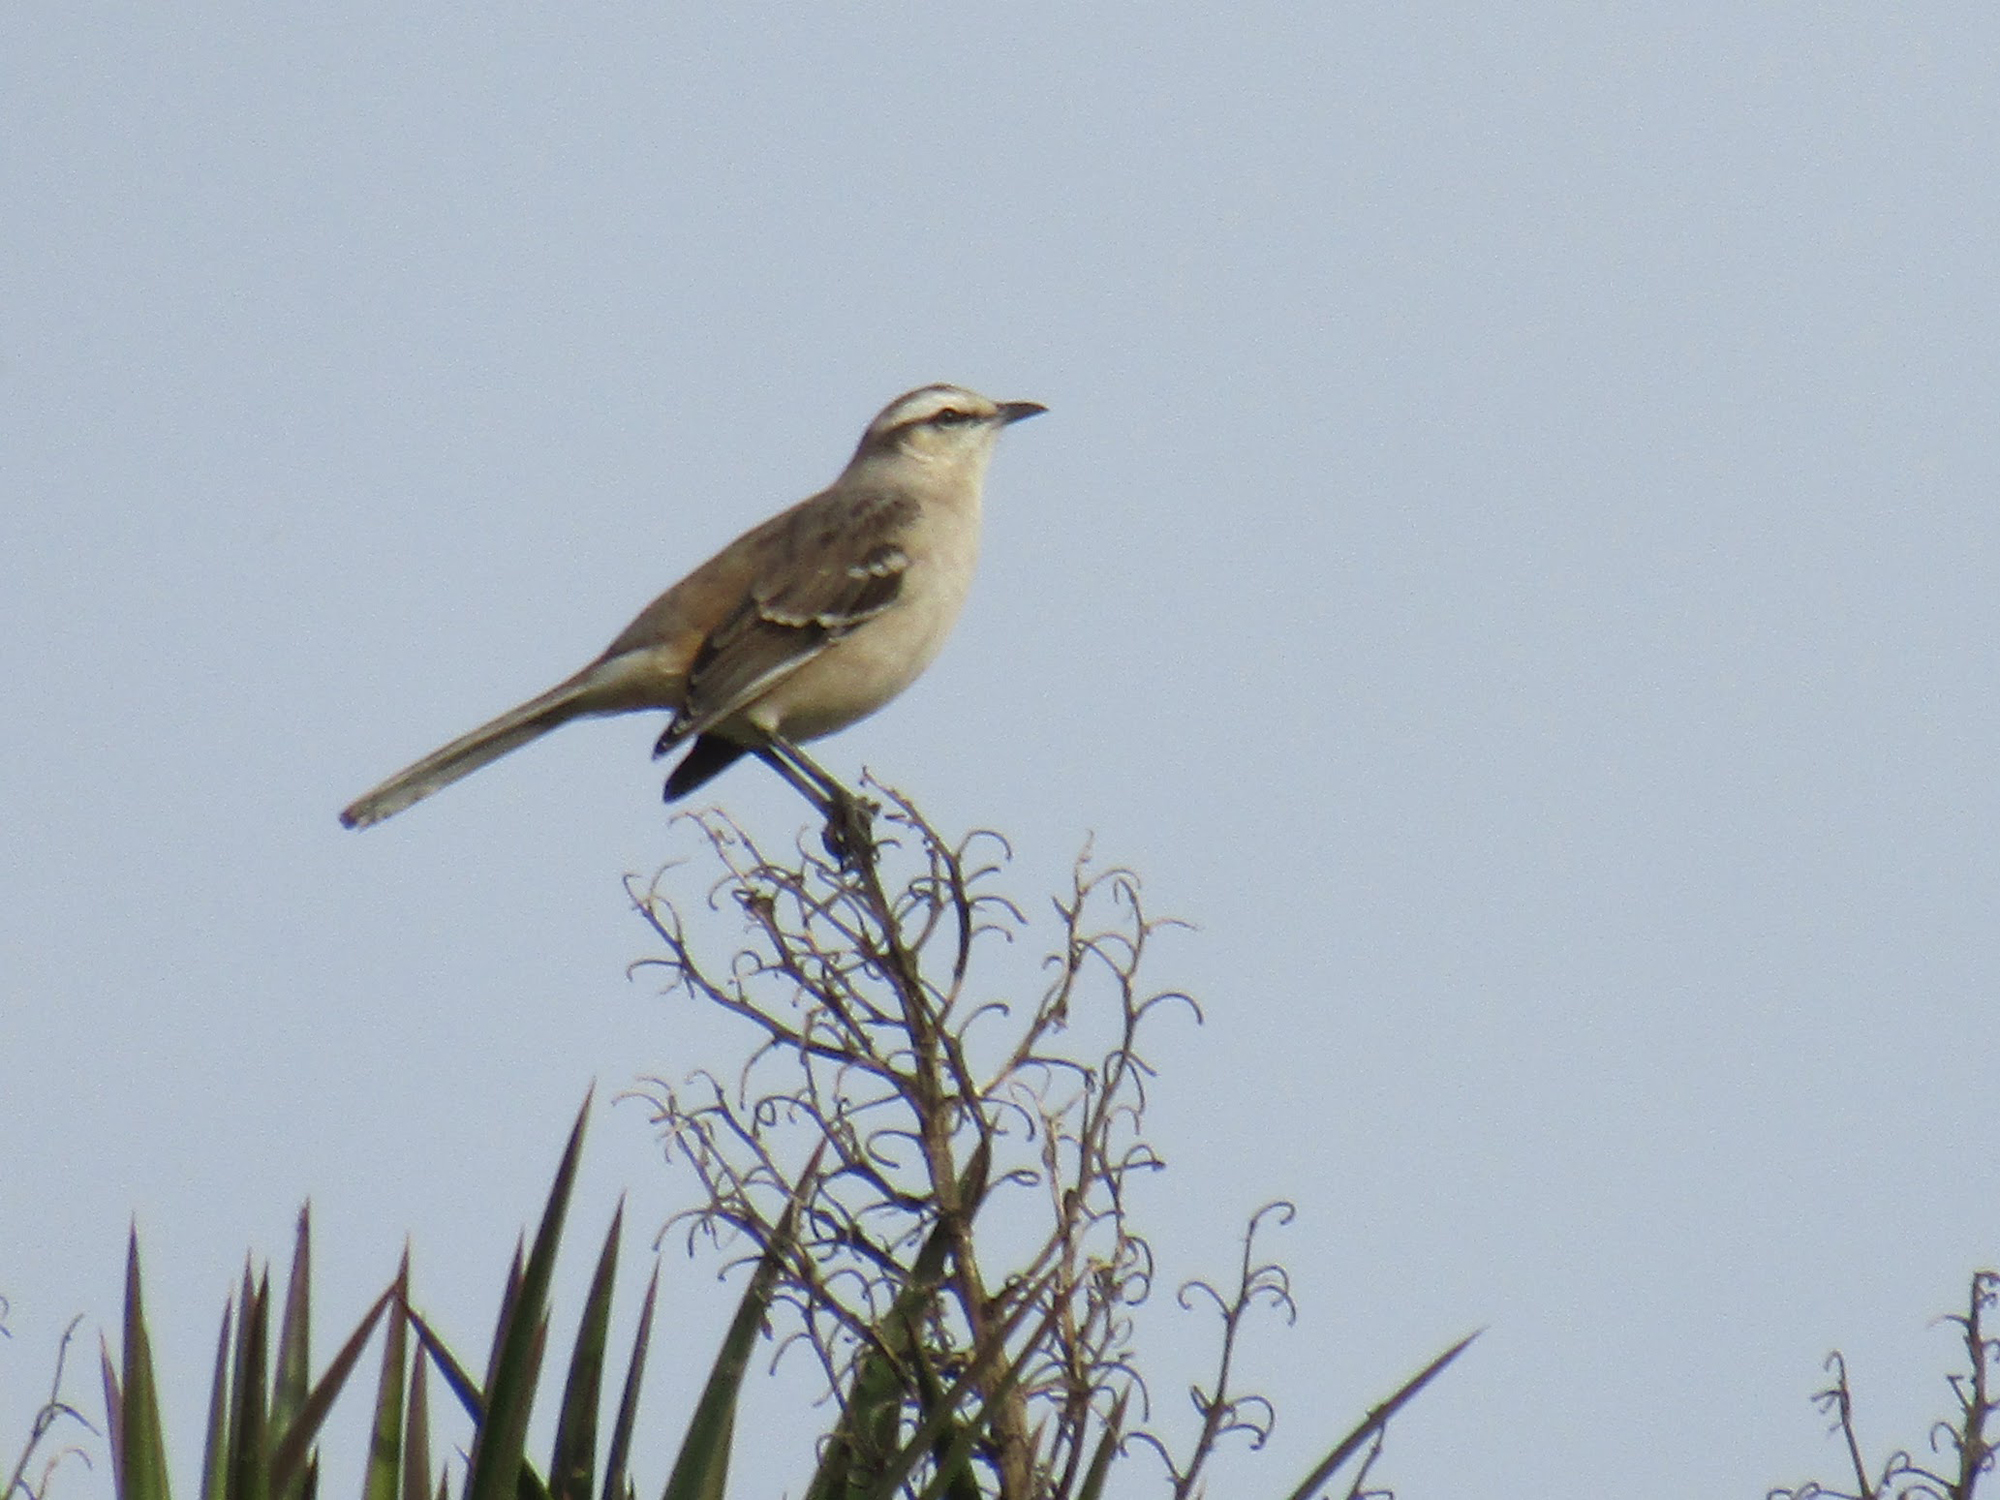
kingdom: Animalia
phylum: Chordata
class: Aves
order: Passeriformes
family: Mimidae
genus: Mimus
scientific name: Mimus saturninus
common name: Chalk-browed mockingbird
